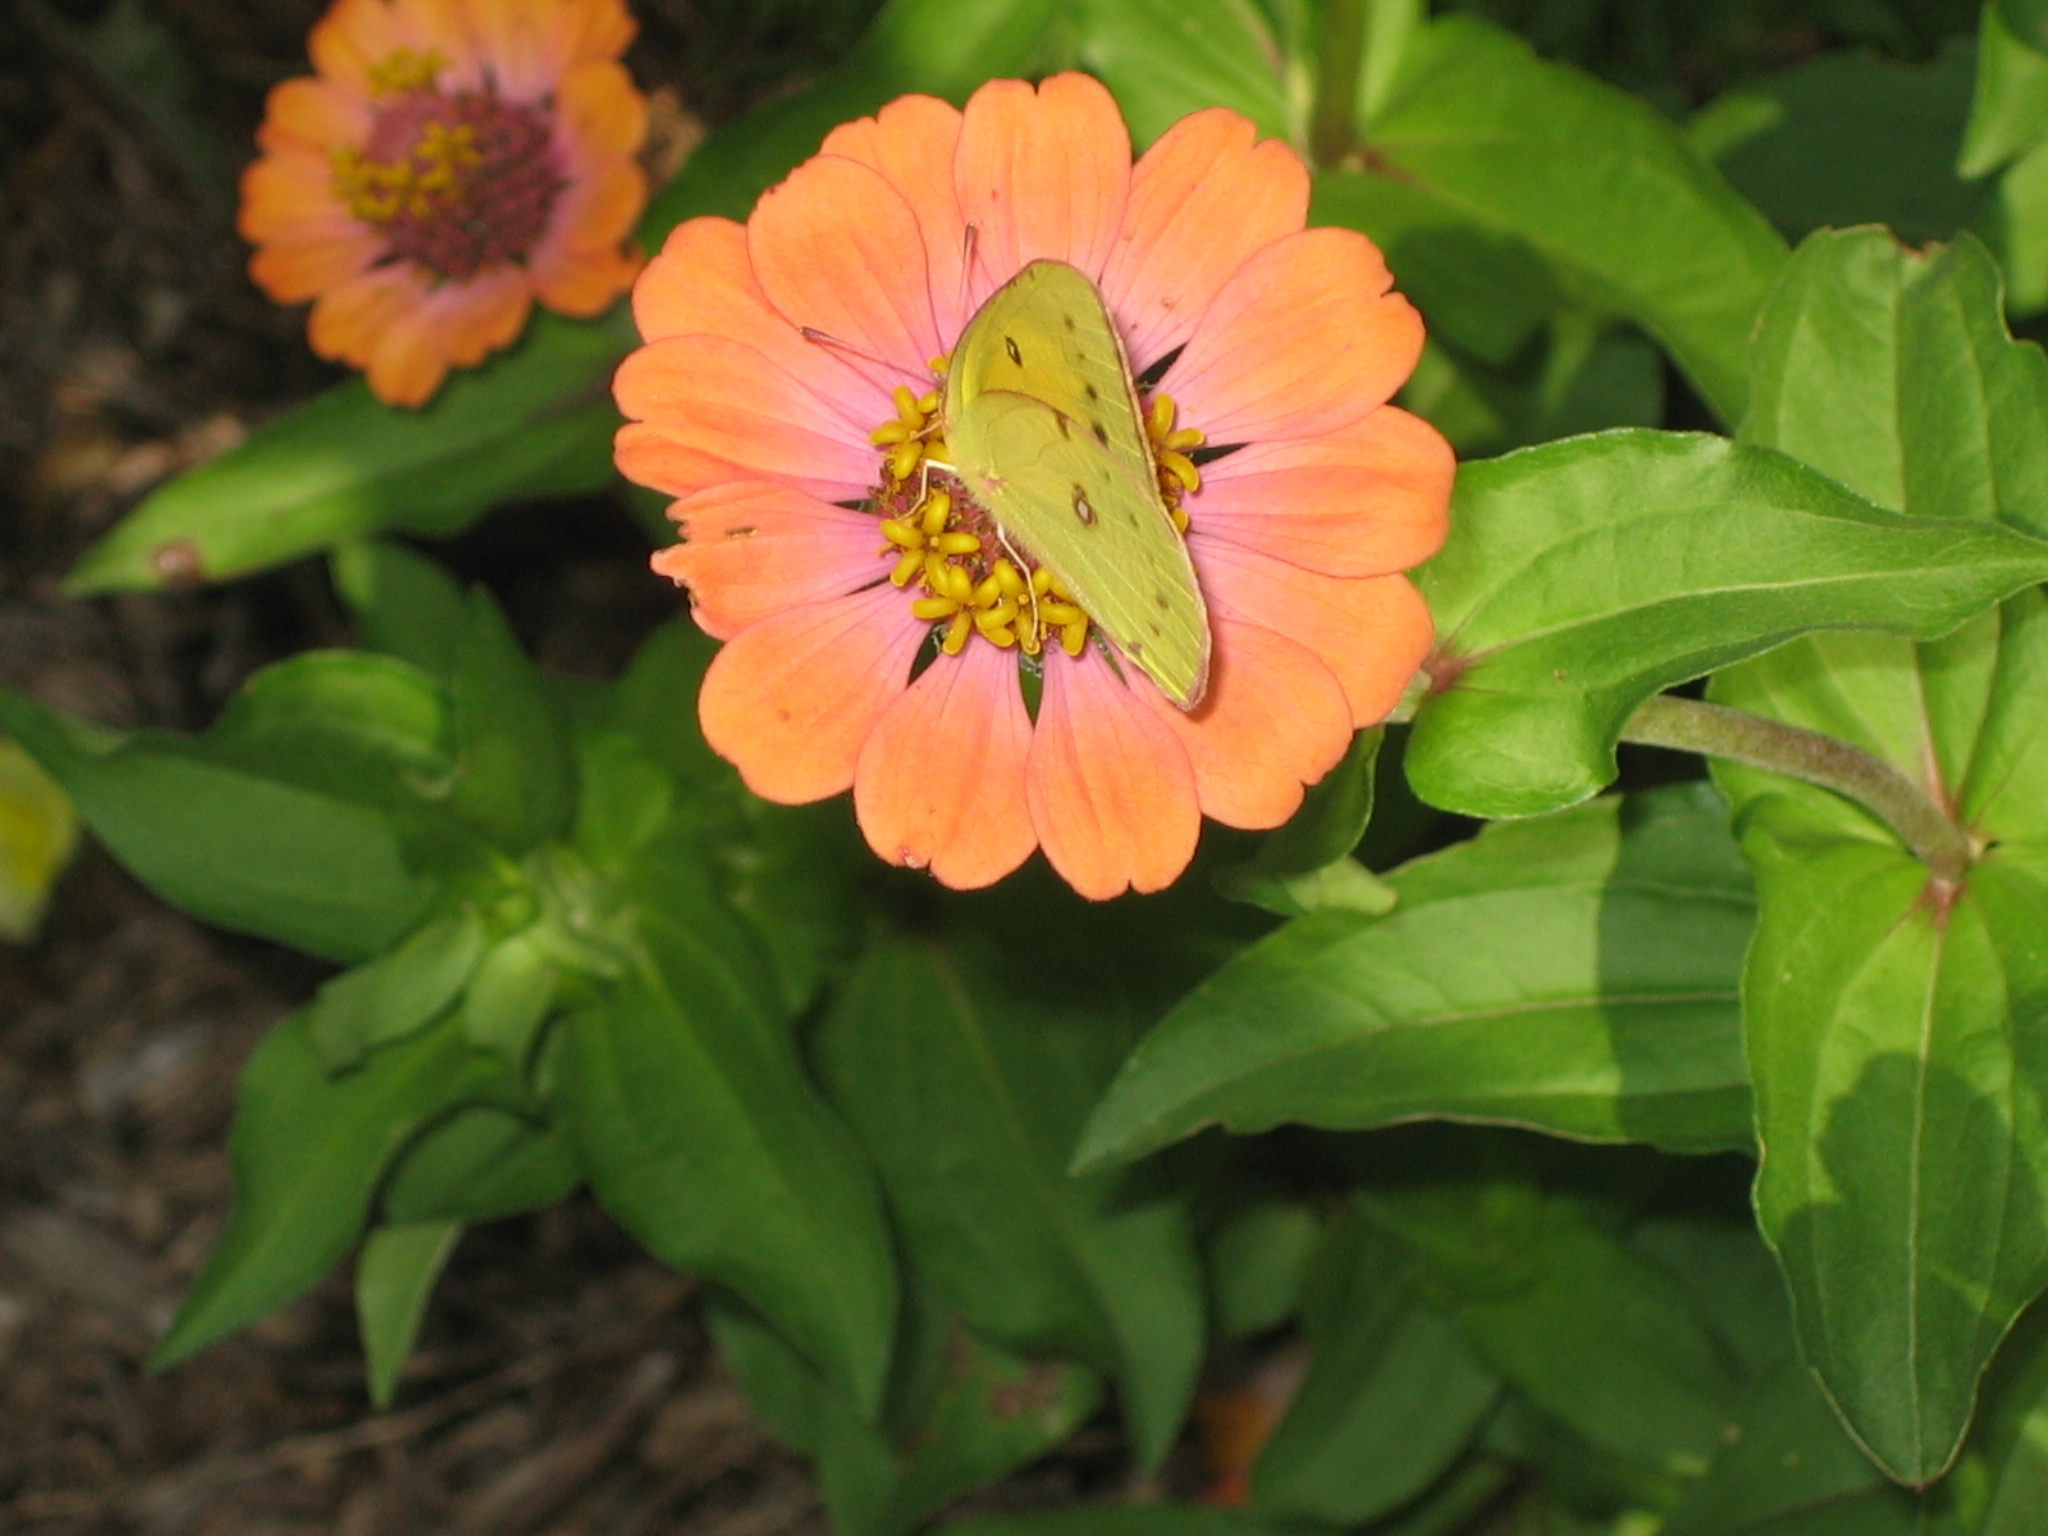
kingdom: Animalia
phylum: Arthropoda
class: Insecta
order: Lepidoptera
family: Pieridae
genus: Colias
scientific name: Colias eurytheme
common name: Alfalfa butterfly
